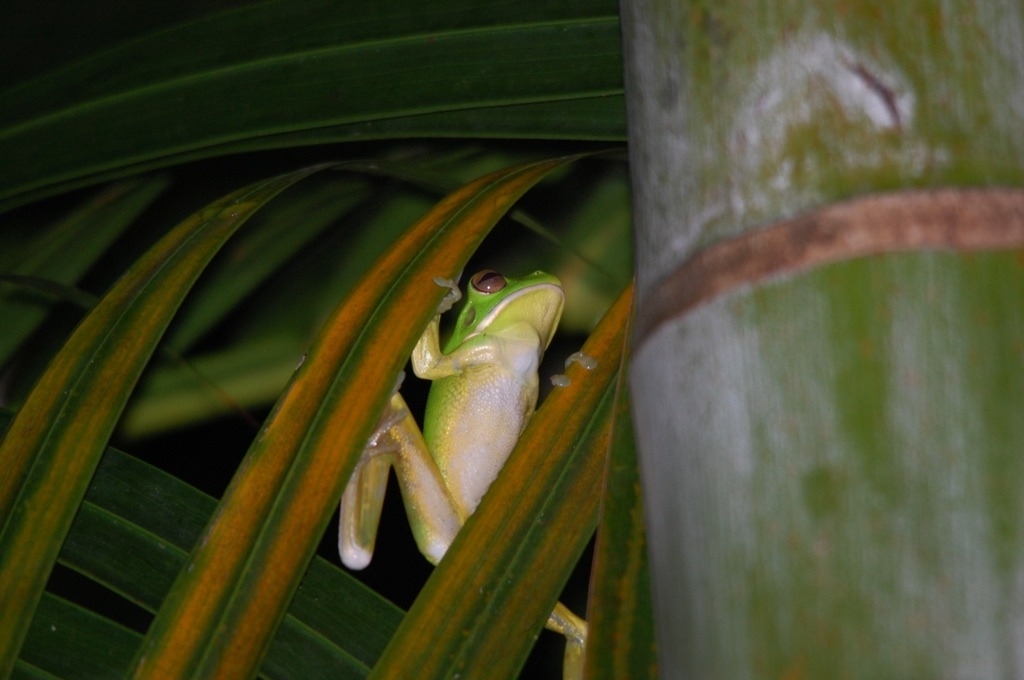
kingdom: Animalia
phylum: Chordata
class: Amphibia
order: Anura
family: Pelodryadidae
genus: Nyctimystes
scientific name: Nyctimystes infrafrenatus
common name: Australian giant treefrog
